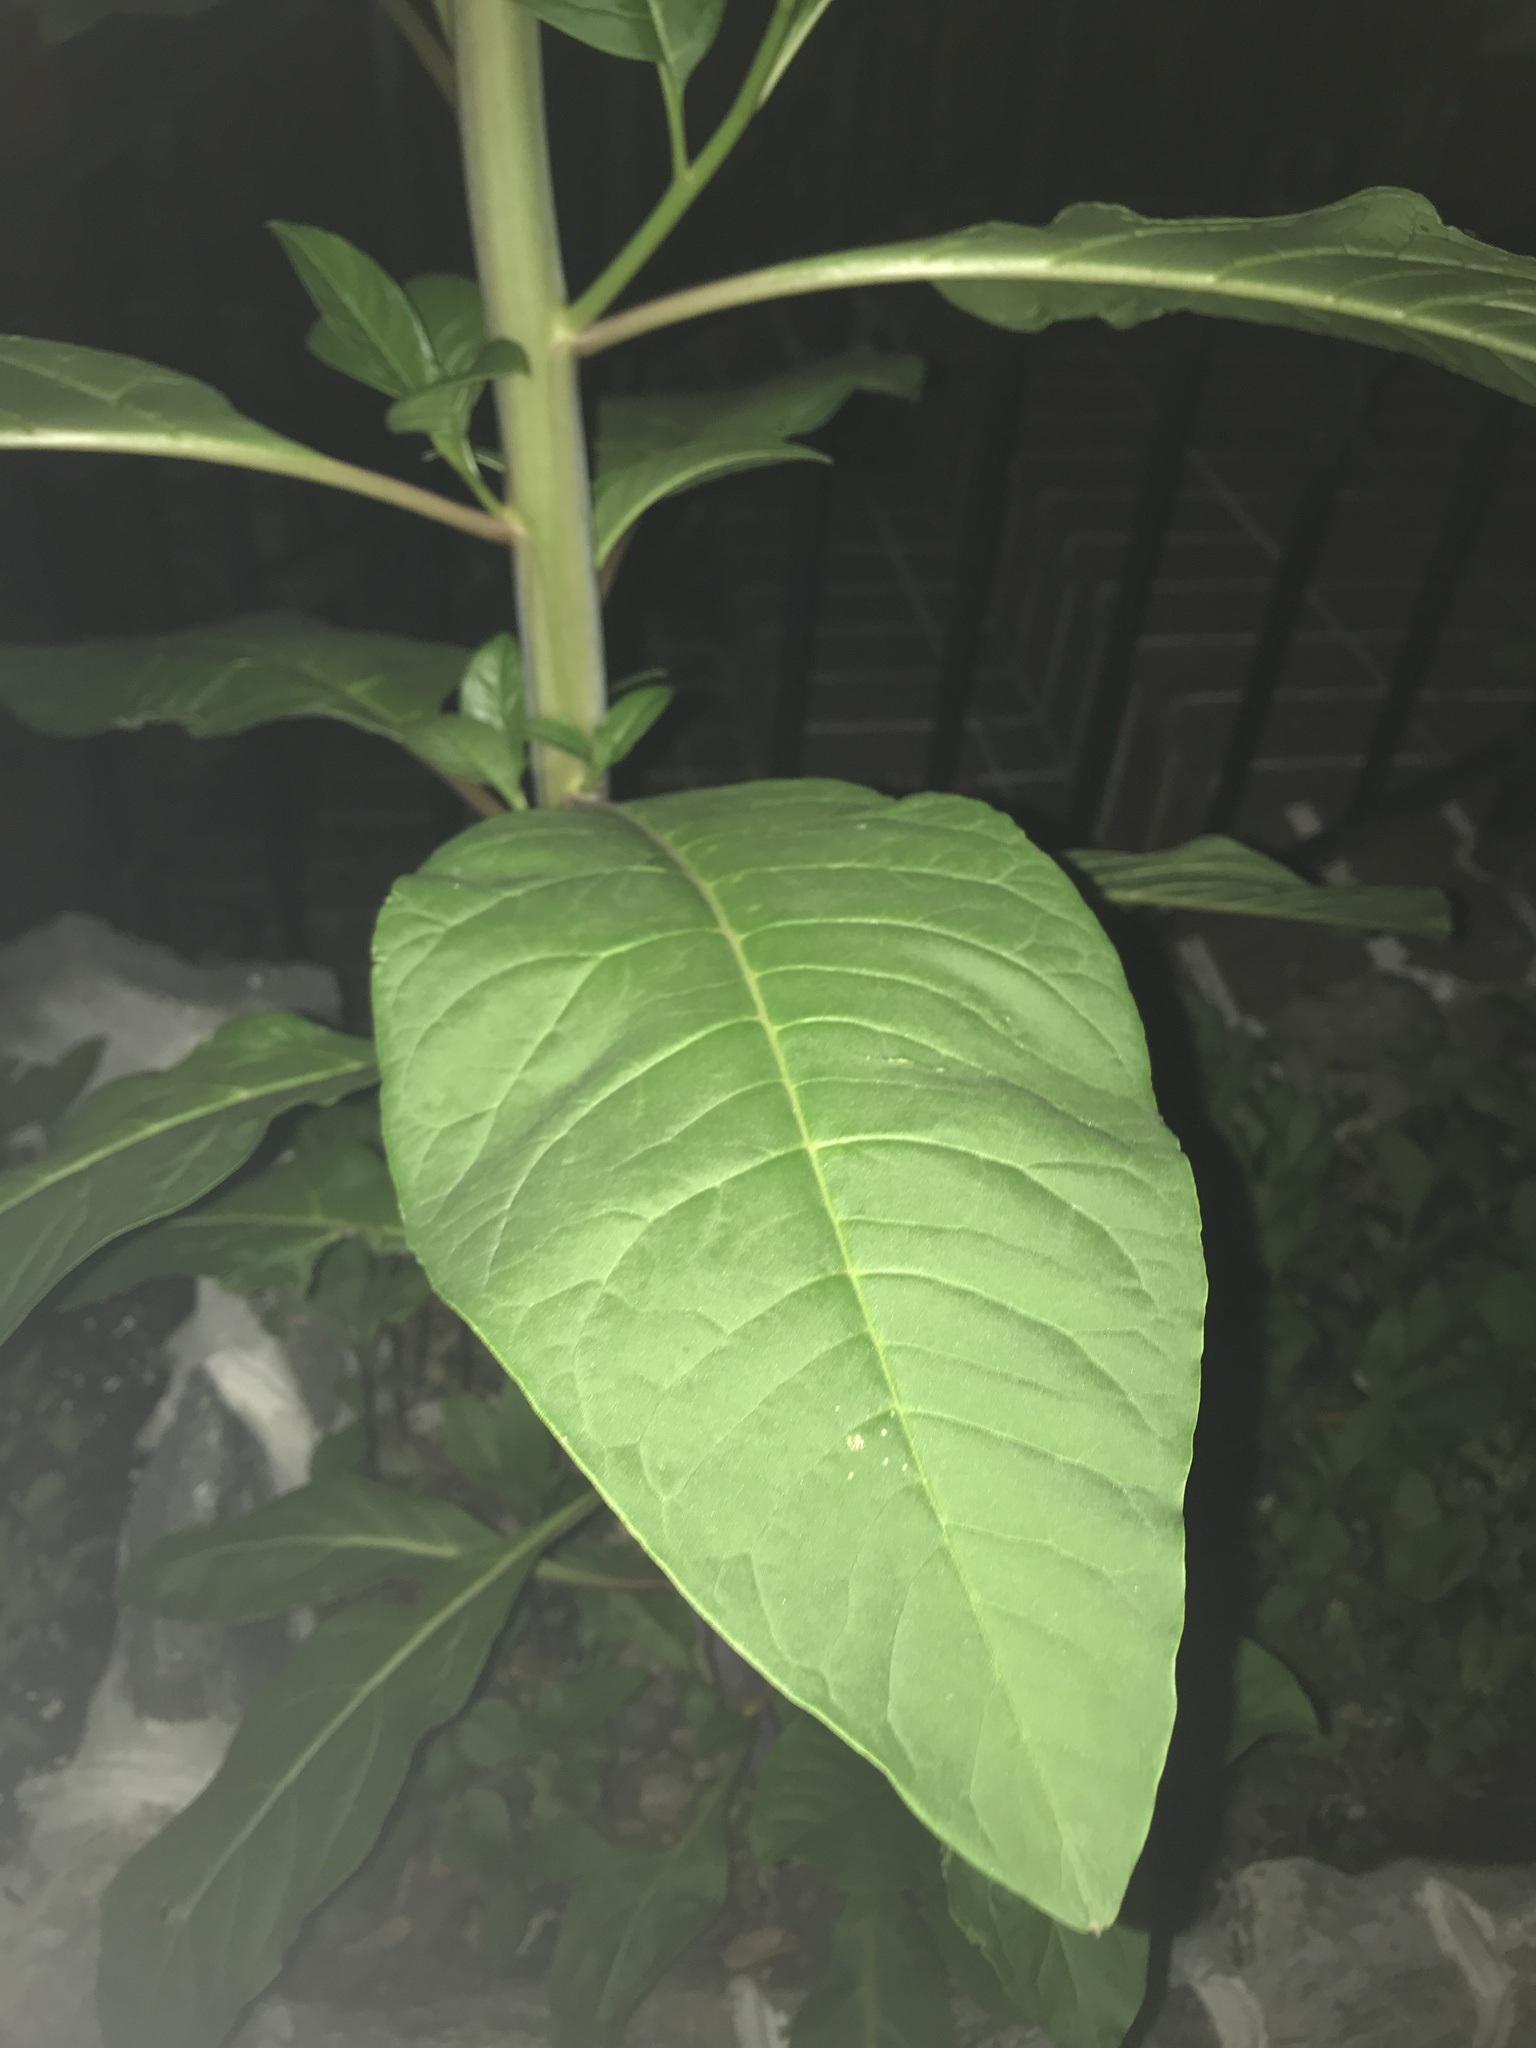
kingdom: Plantae
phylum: Tracheophyta
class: Magnoliopsida
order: Caryophyllales
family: Phytolaccaceae
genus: Phytolacca
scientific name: Phytolacca americana
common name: American pokeweed
